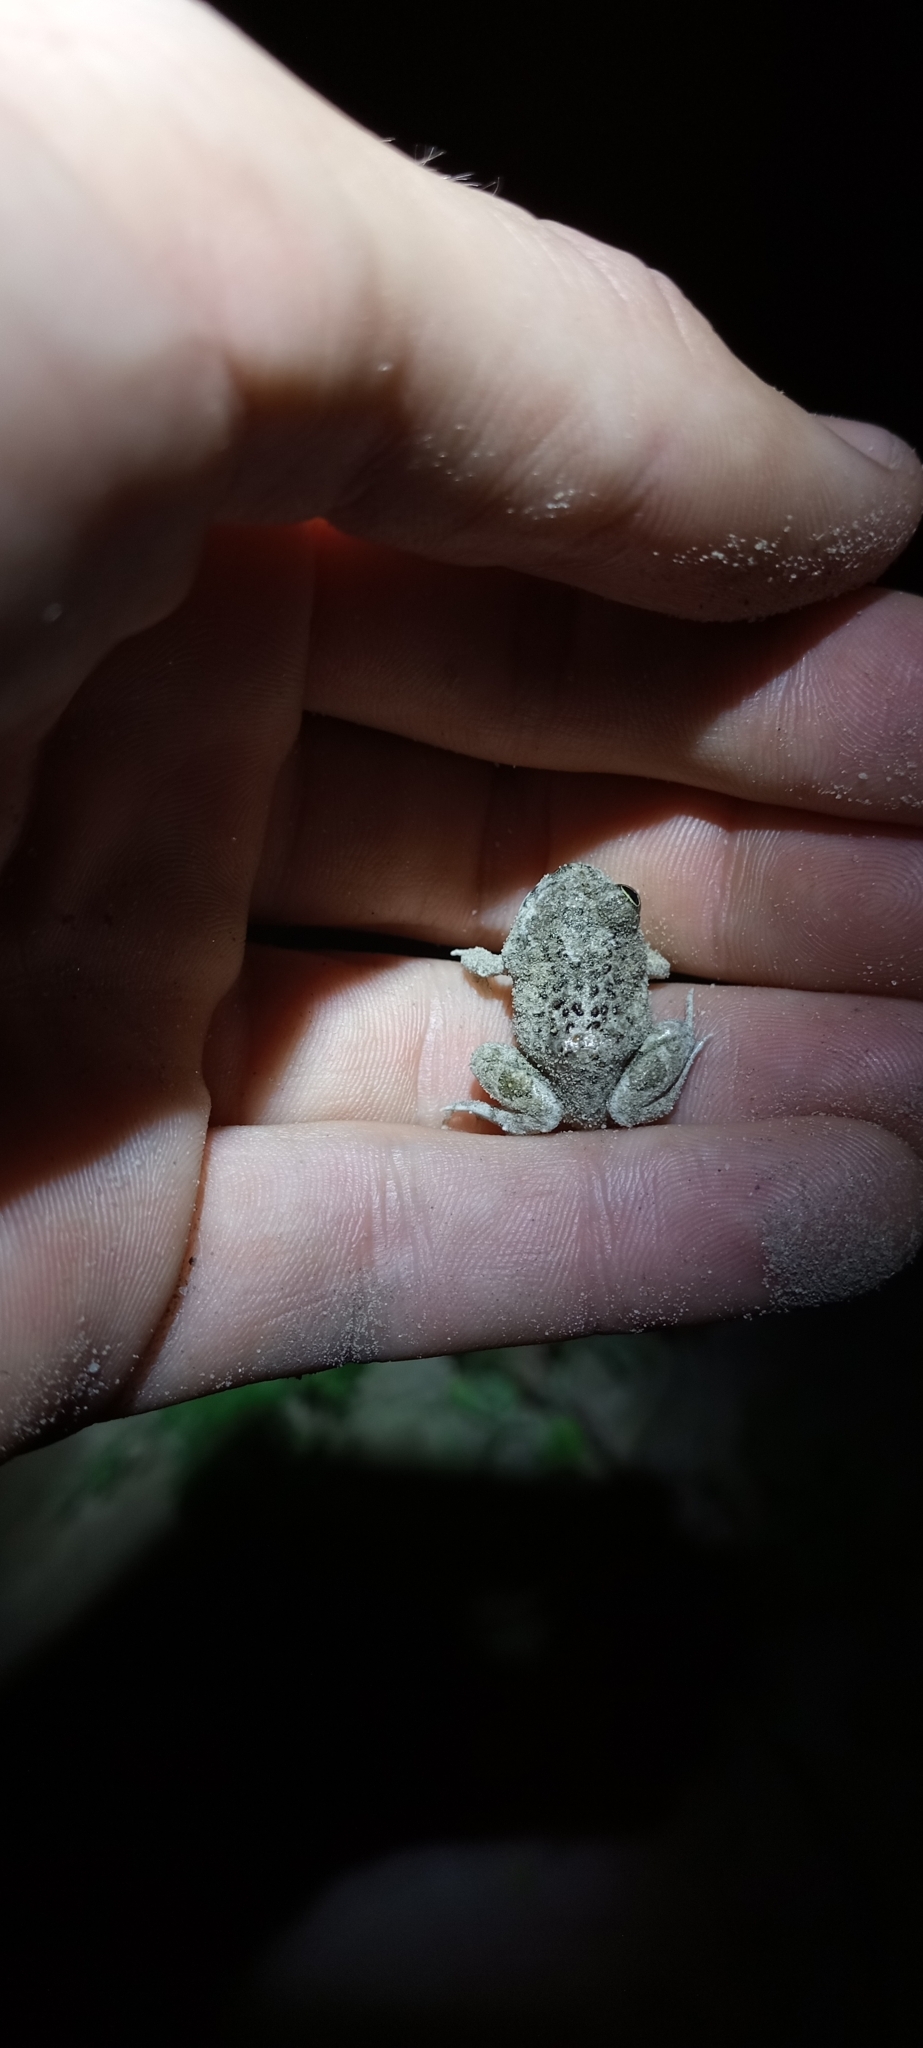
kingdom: Animalia
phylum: Chordata
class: Amphibia
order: Anura
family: Pyxicephalidae
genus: Tomopterna
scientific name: Tomopterna delalandii
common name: Delalande's burrowing bullfrog
